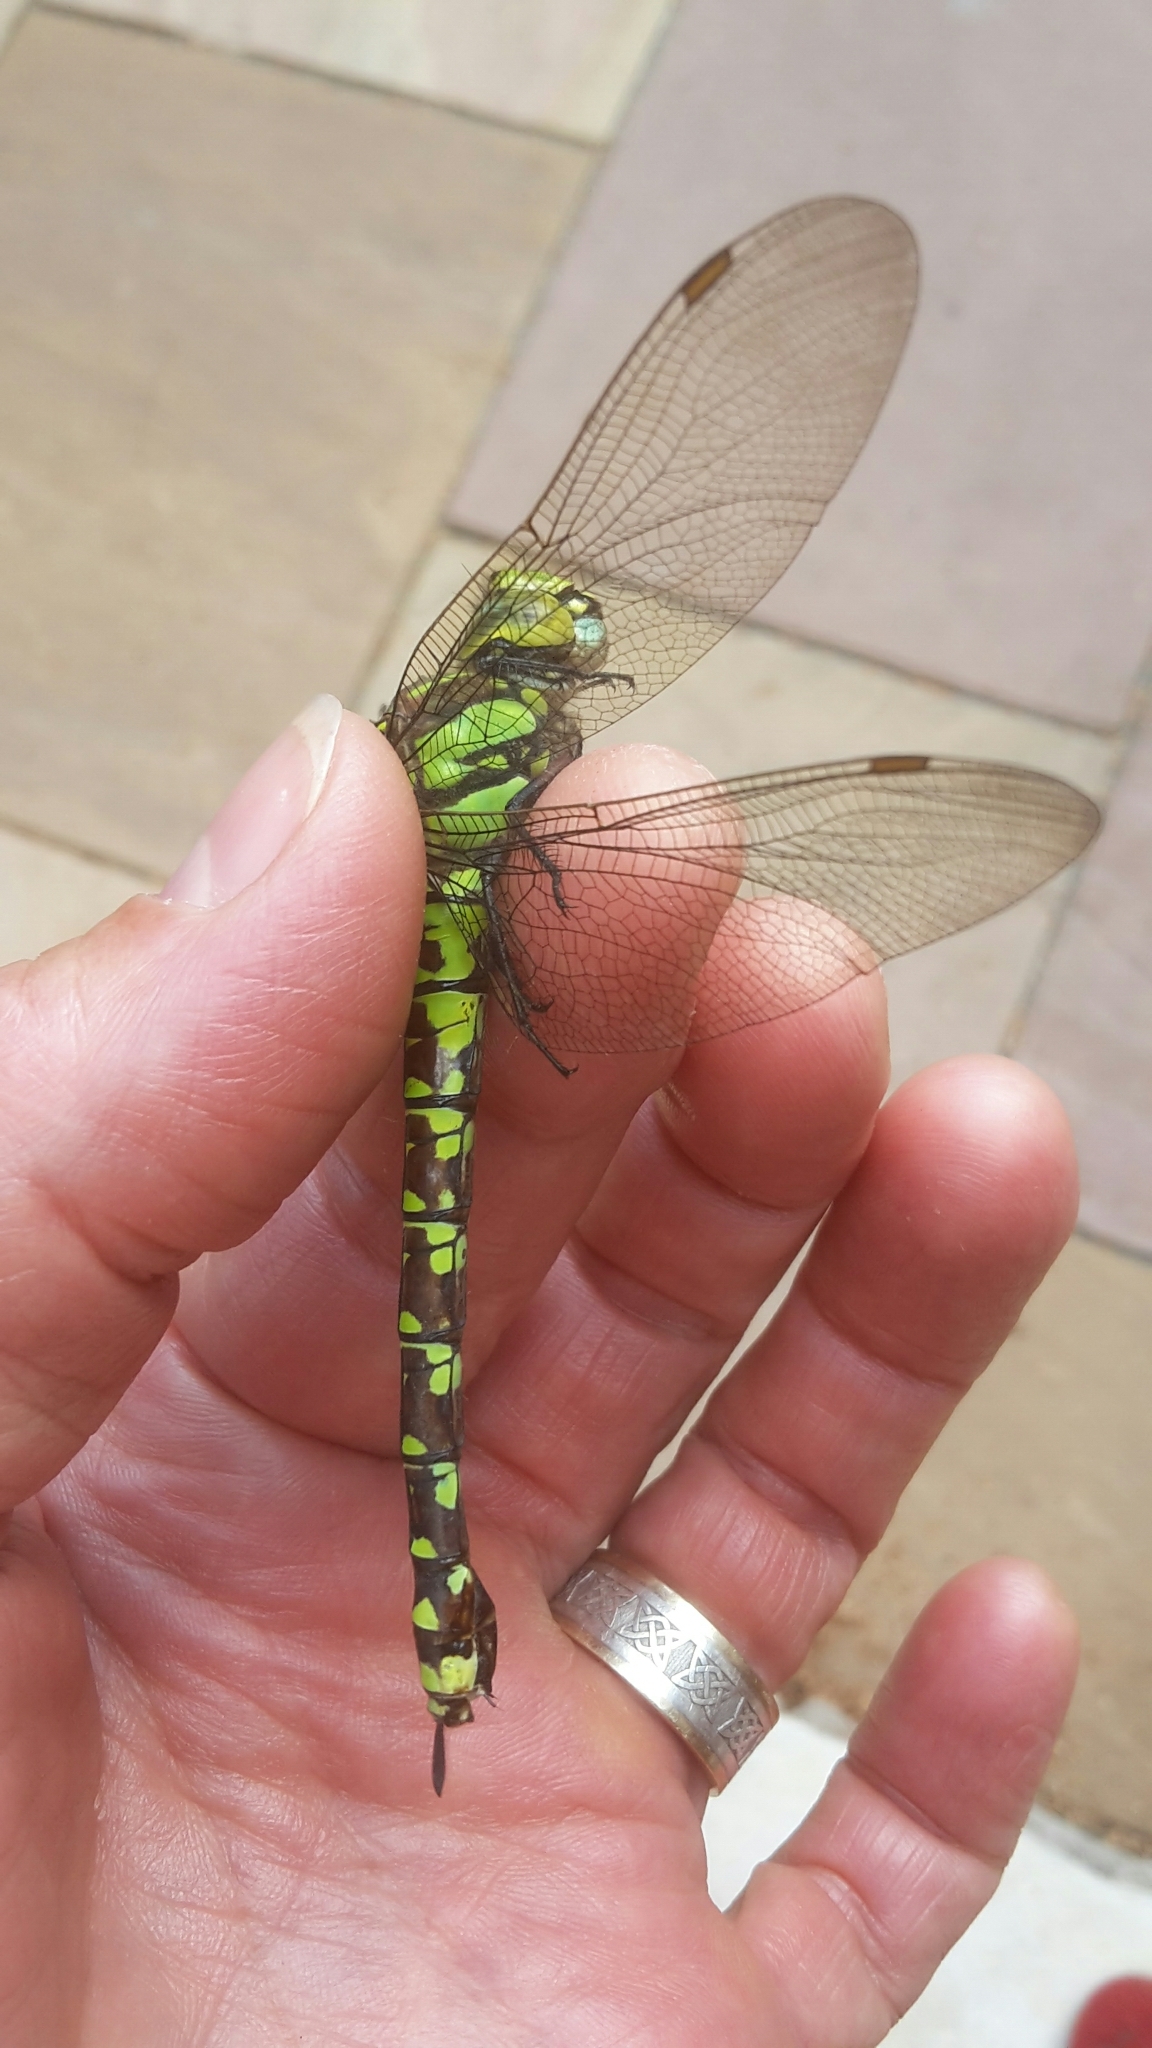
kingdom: Animalia
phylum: Arthropoda
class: Insecta
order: Odonata
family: Aeshnidae
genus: Aeshna
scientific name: Aeshna cyanea
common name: Southern hawker
